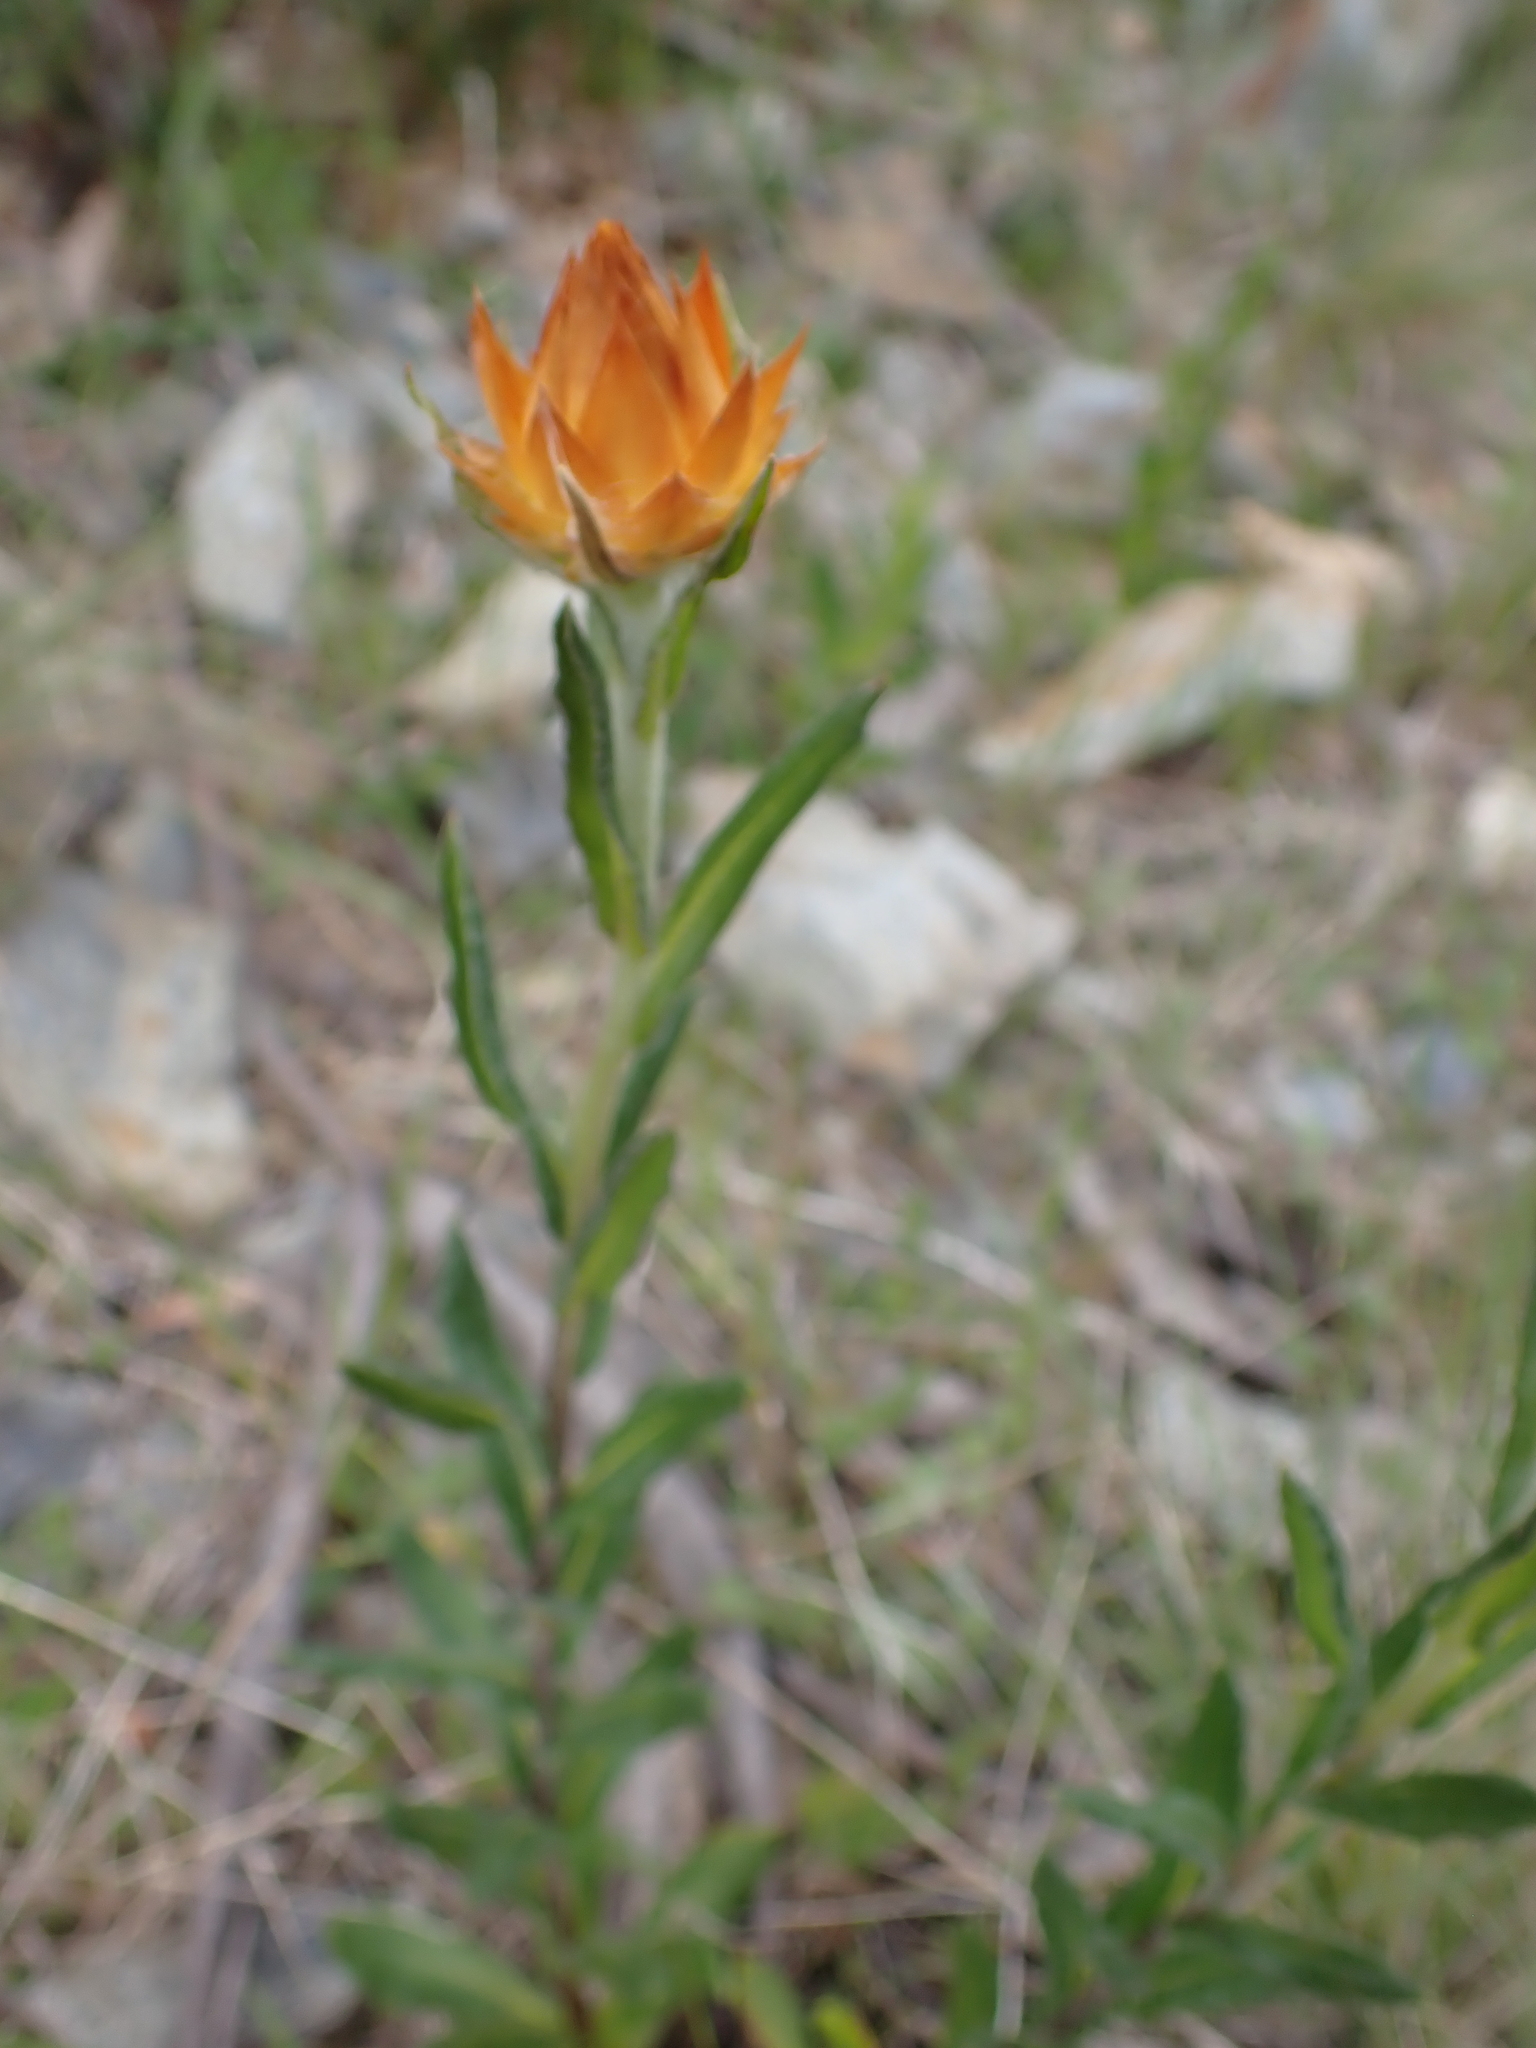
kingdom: Plantae
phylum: Tracheophyta
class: Magnoliopsida
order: Asterales
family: Asteraceae
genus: Xerochrysum
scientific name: Xerochrysum subundulatum
